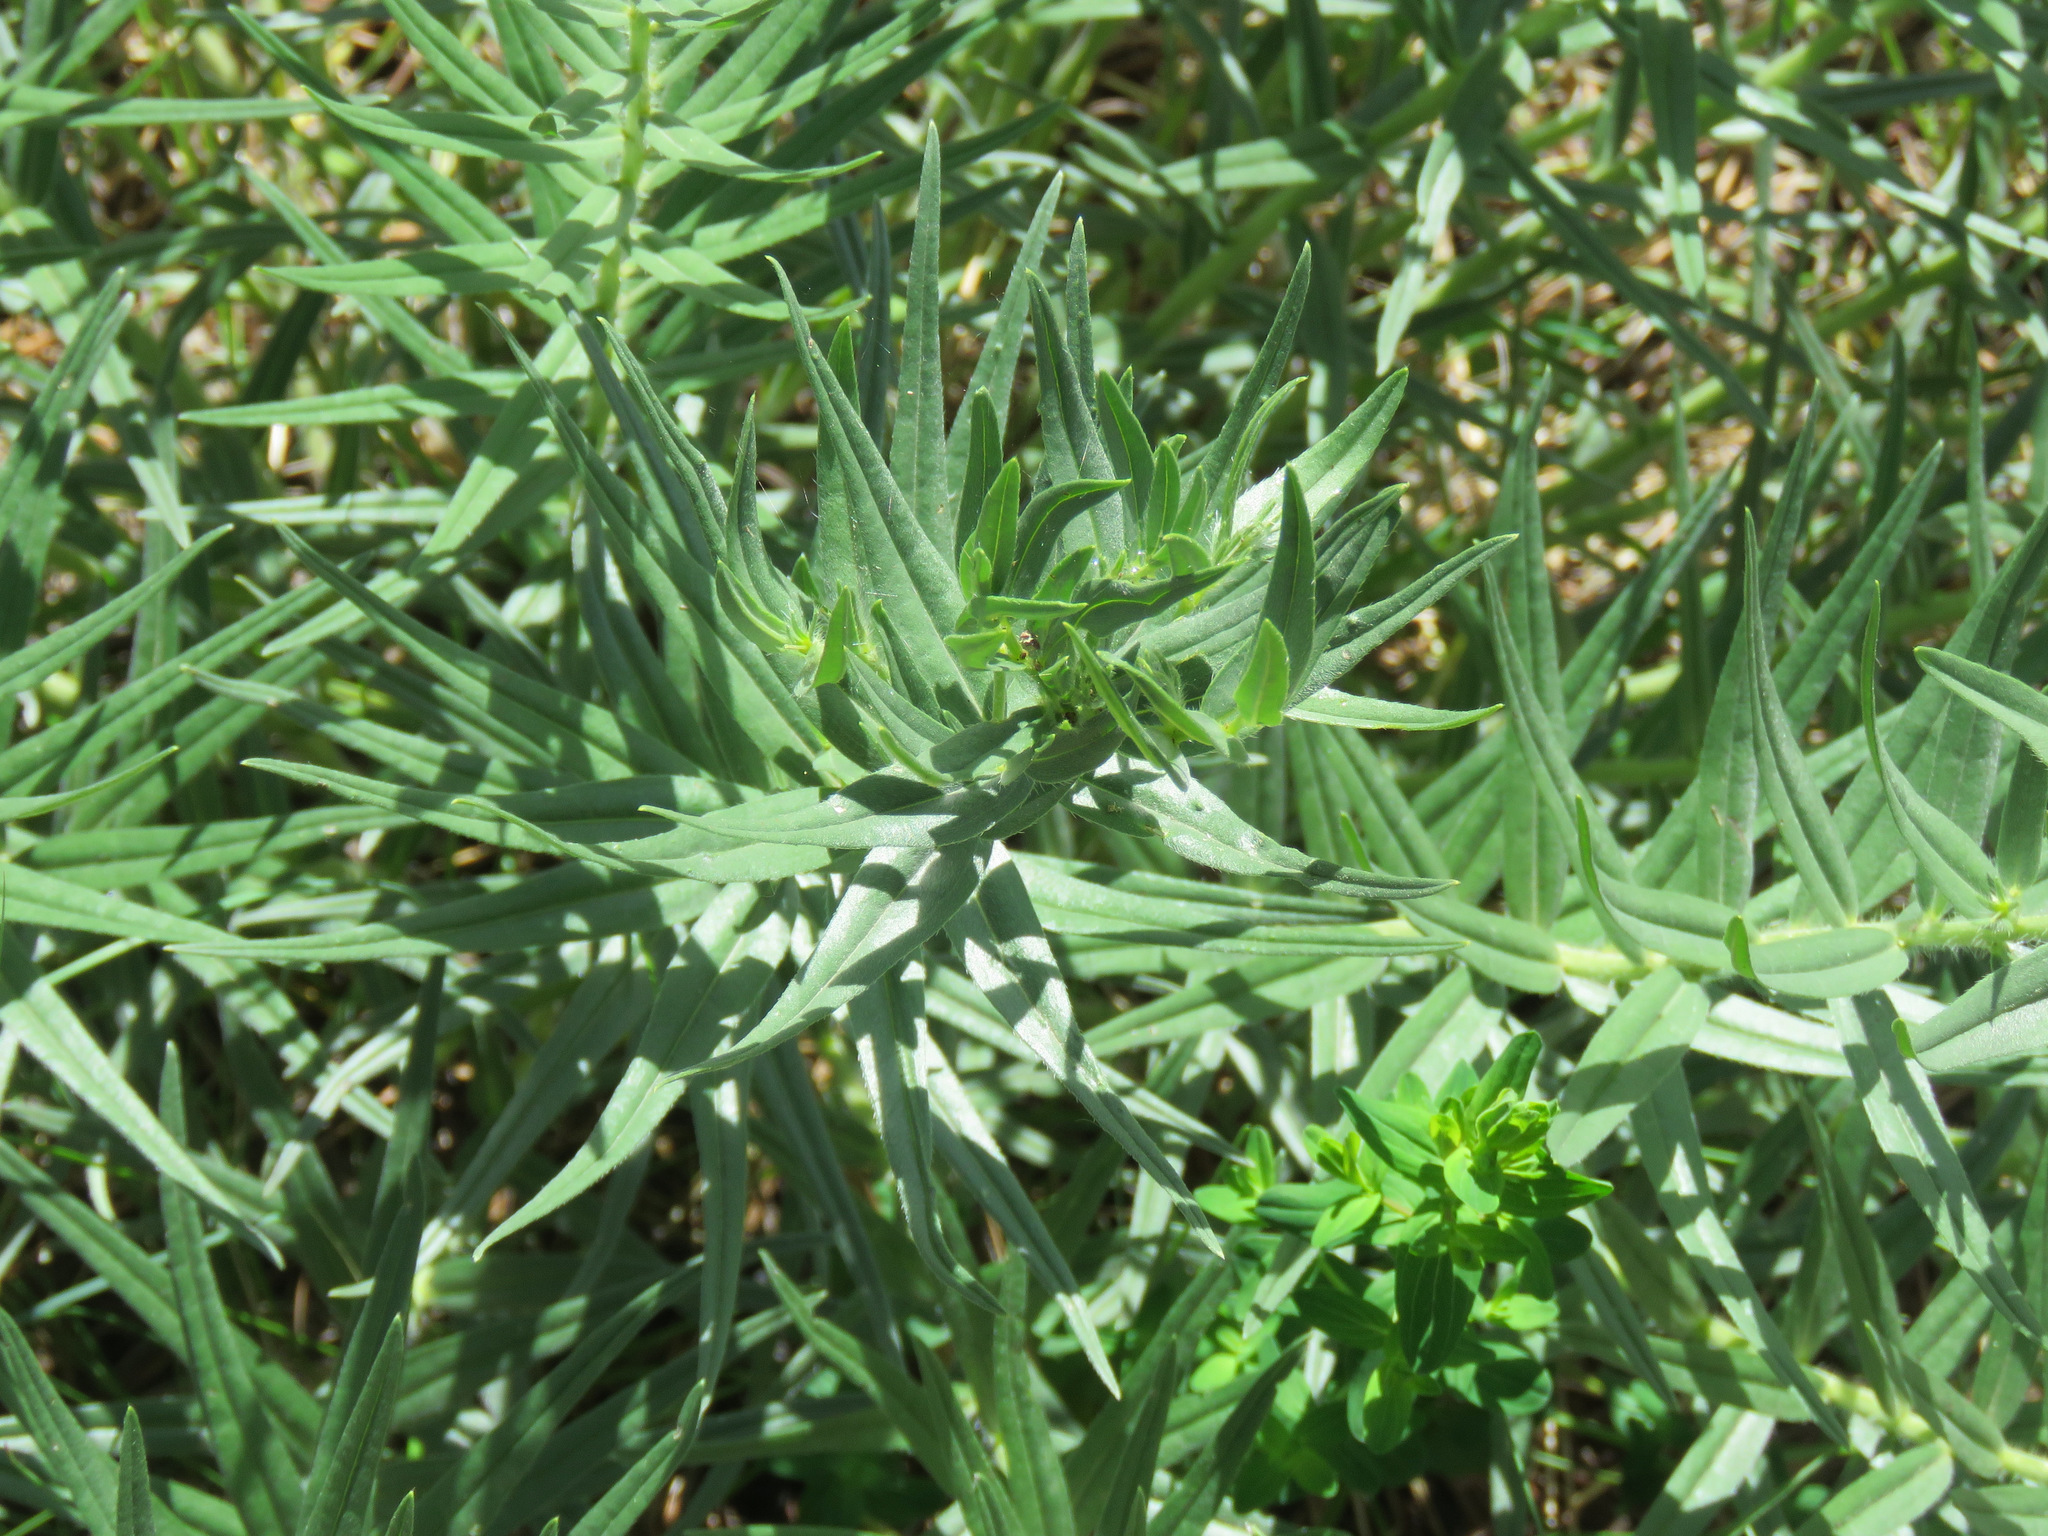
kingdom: Plantae
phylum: Tracheophyta
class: Magnoliopsida
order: Boraginales
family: Boraginaceae
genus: Lithospermum
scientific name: Lithospermum ruderale
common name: Western gromwell
